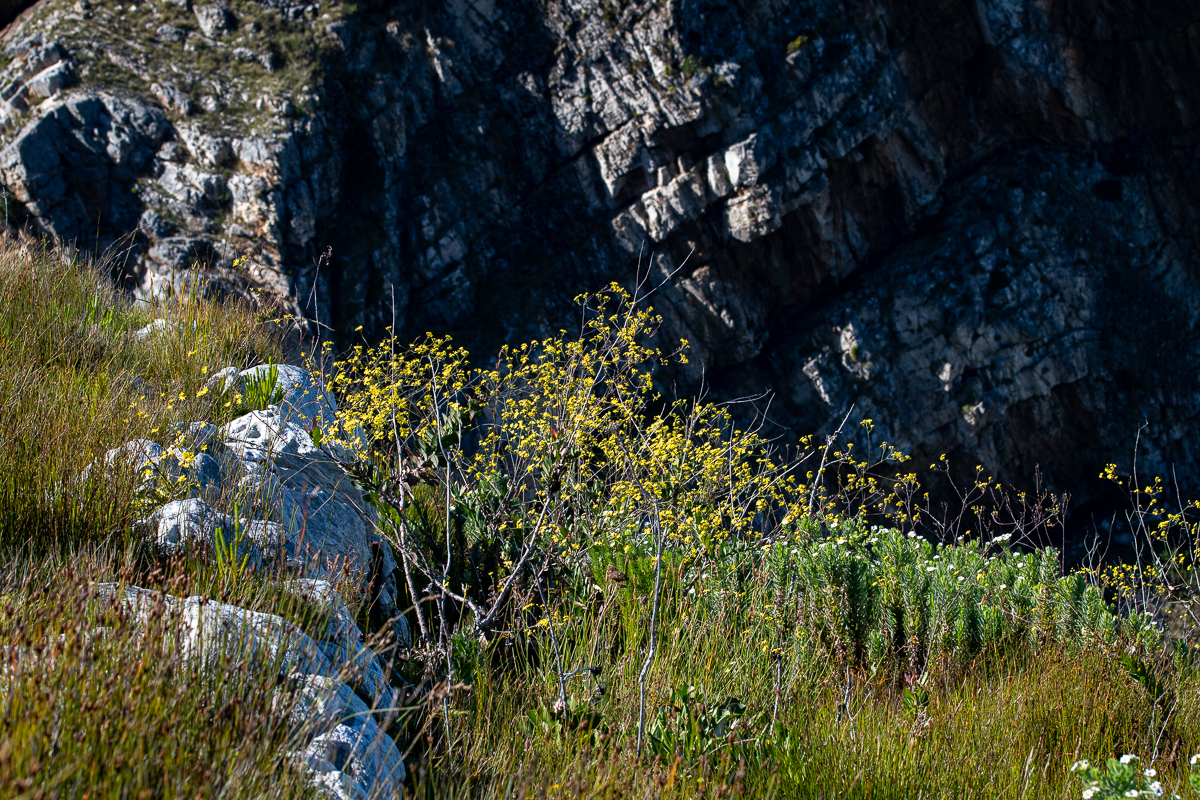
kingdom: Plantae
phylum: Tracheophyta
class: Magnoliopsida
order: Asterales
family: Asteraceae
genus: Othonna
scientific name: Othonna quinquedentata
